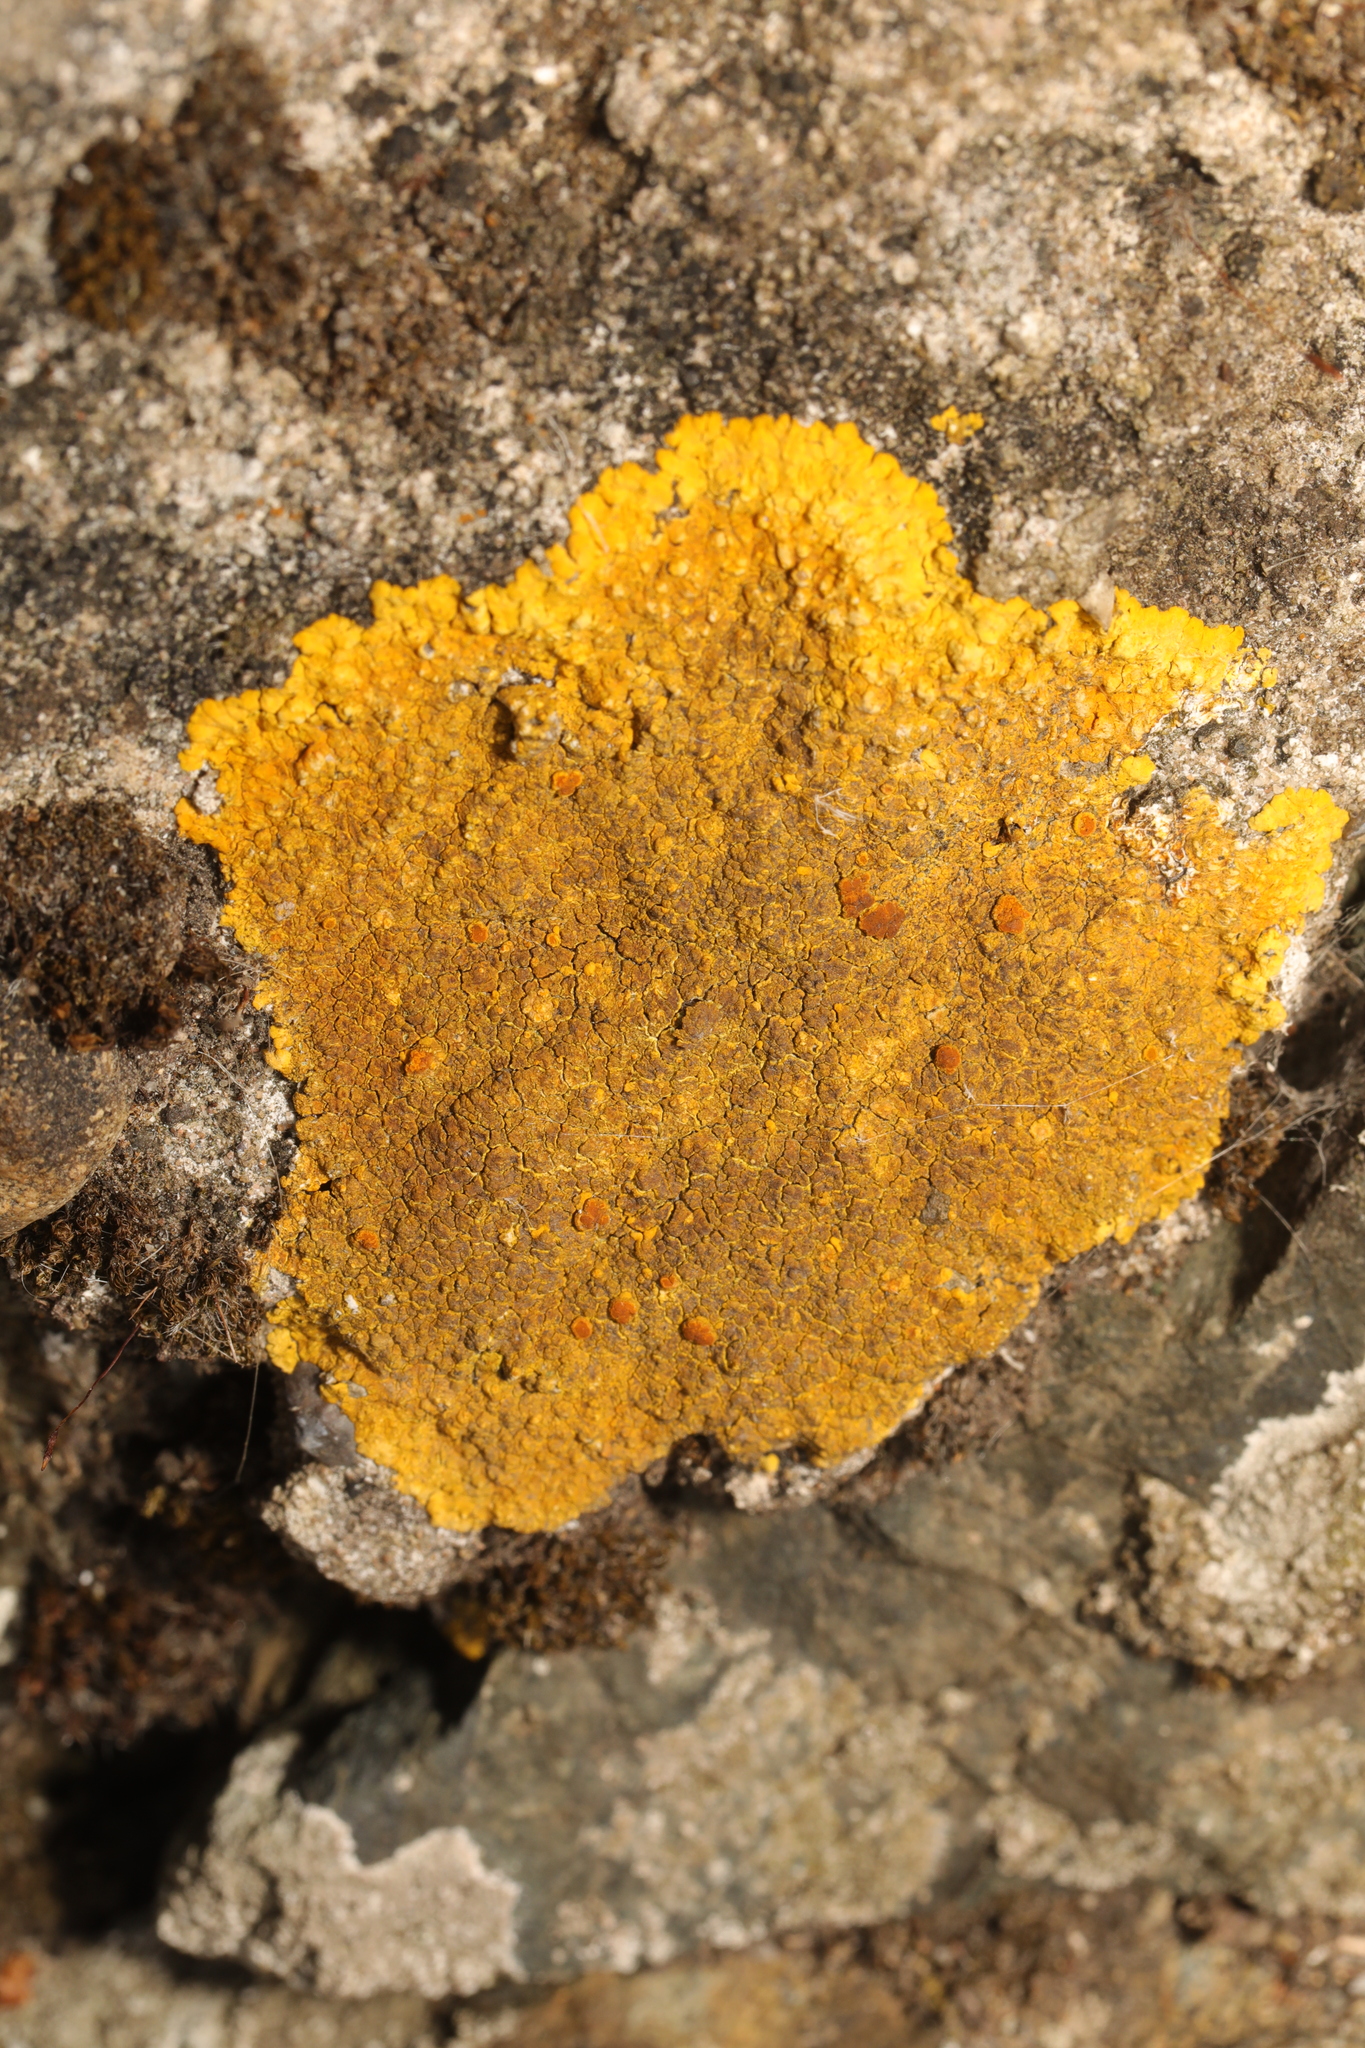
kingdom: Fungi
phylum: Ascomycota
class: Lecanoromycetes
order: Teloschistales
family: Teloschistaceae
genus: Variospora
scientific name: Variospora aurantia
